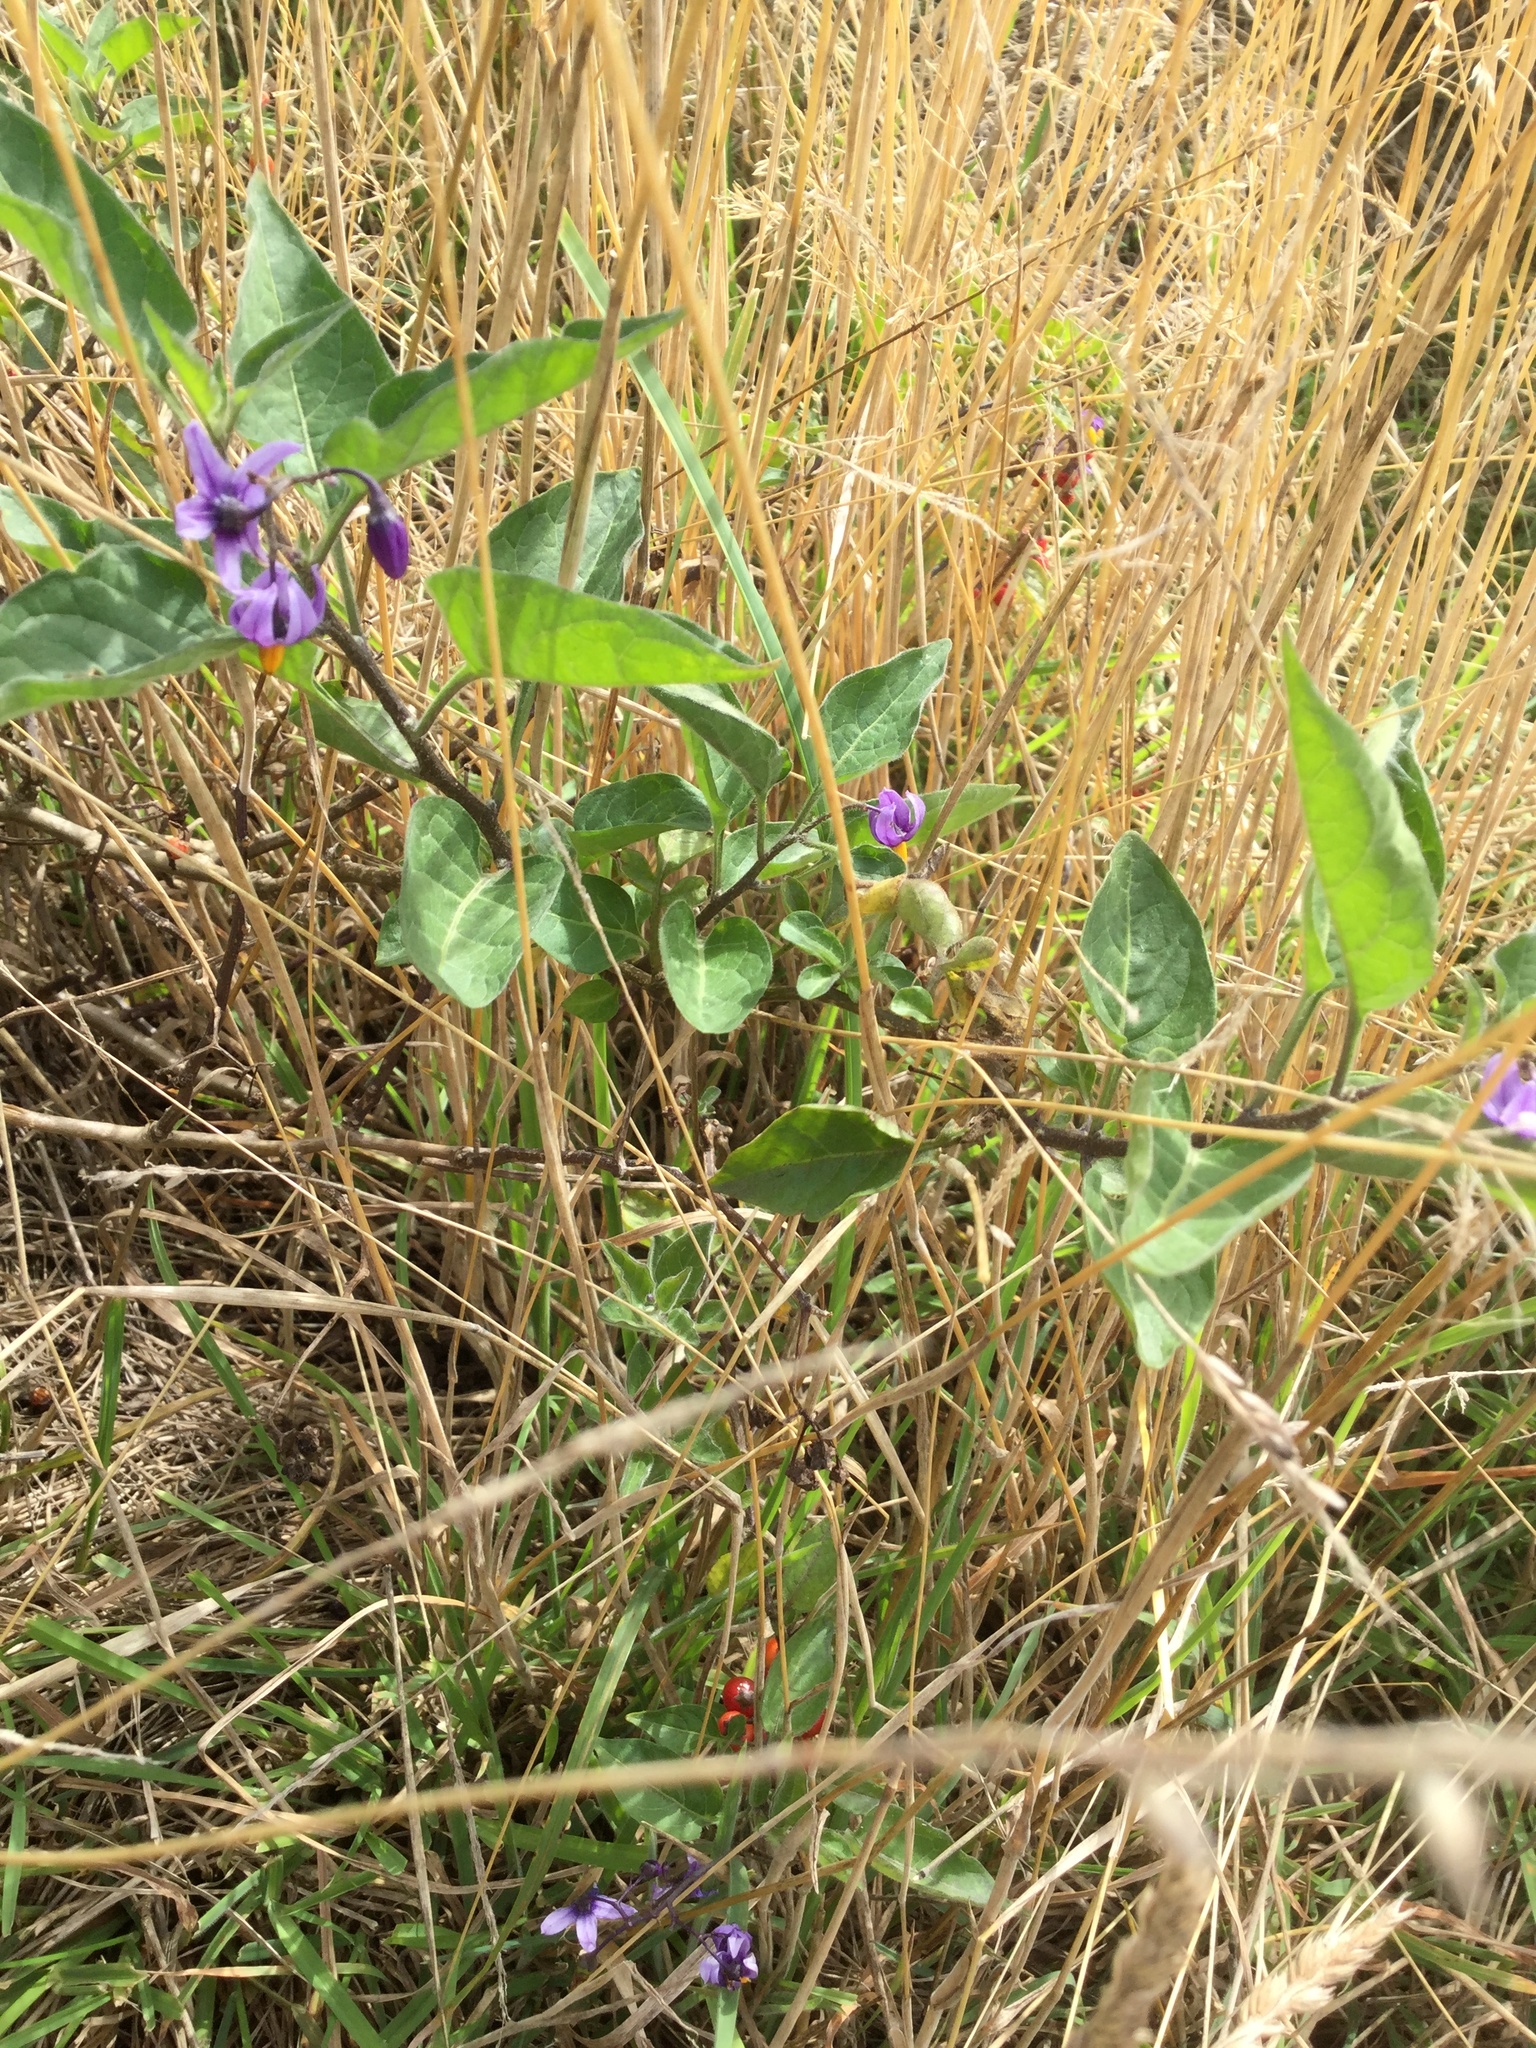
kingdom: Plantae
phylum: Tracheophyta
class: Magnoliopsida
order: Solanales
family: Solanaceae
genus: Solanum
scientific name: Solanum dulcamara
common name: Climbing nightshade
